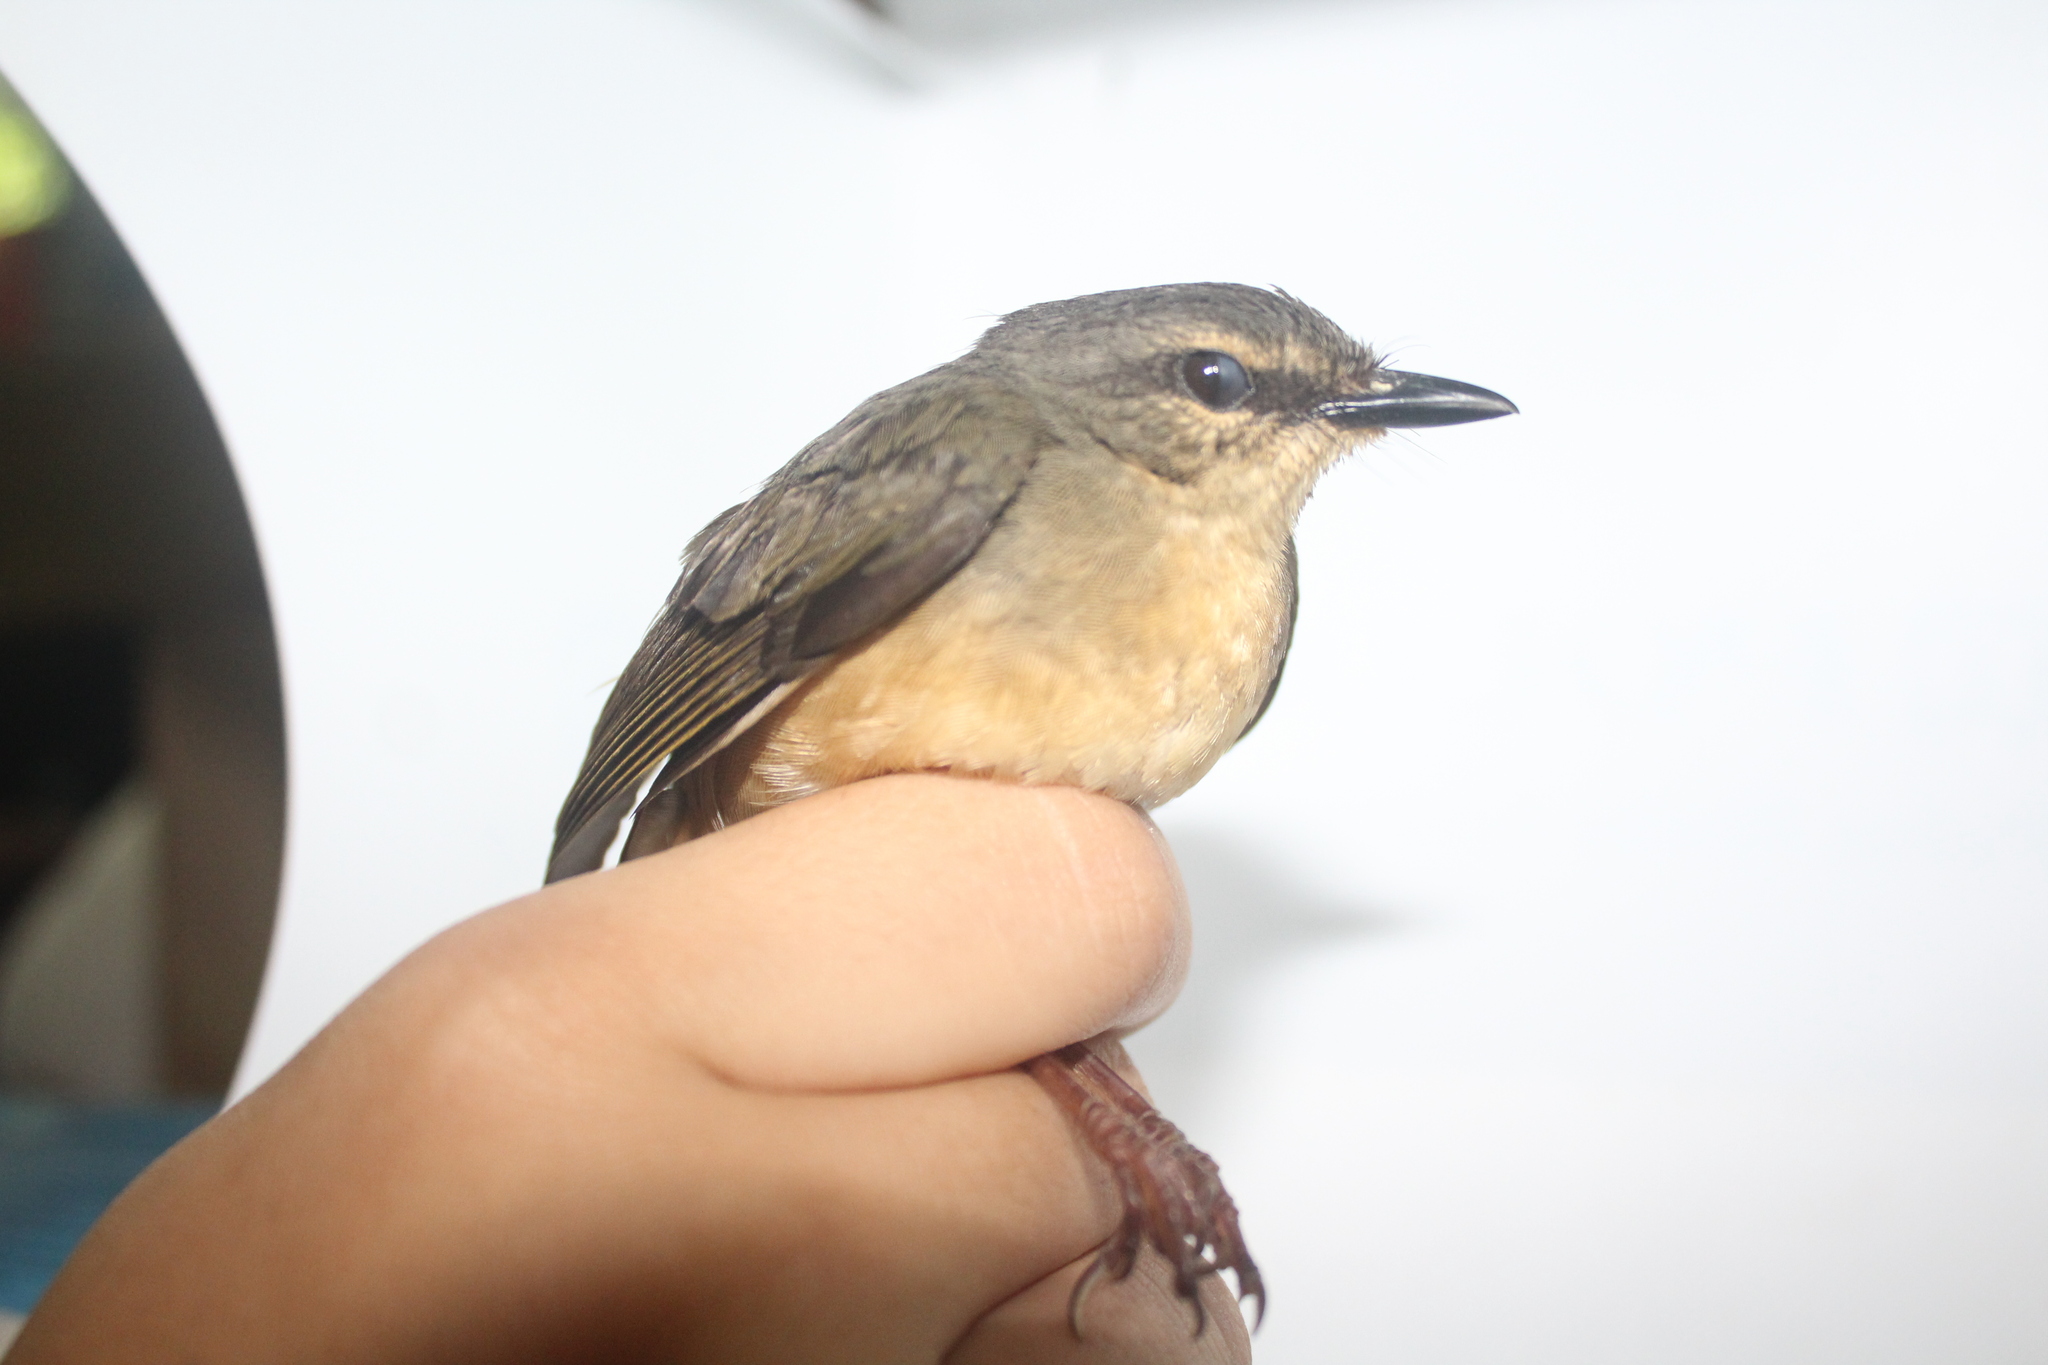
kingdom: Animalia
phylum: Chordata
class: Aves
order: Passeriformes
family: Parulidae
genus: Myiothlypis
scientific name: Myiothlypis fulvicauda
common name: Buff-rumped warbler
